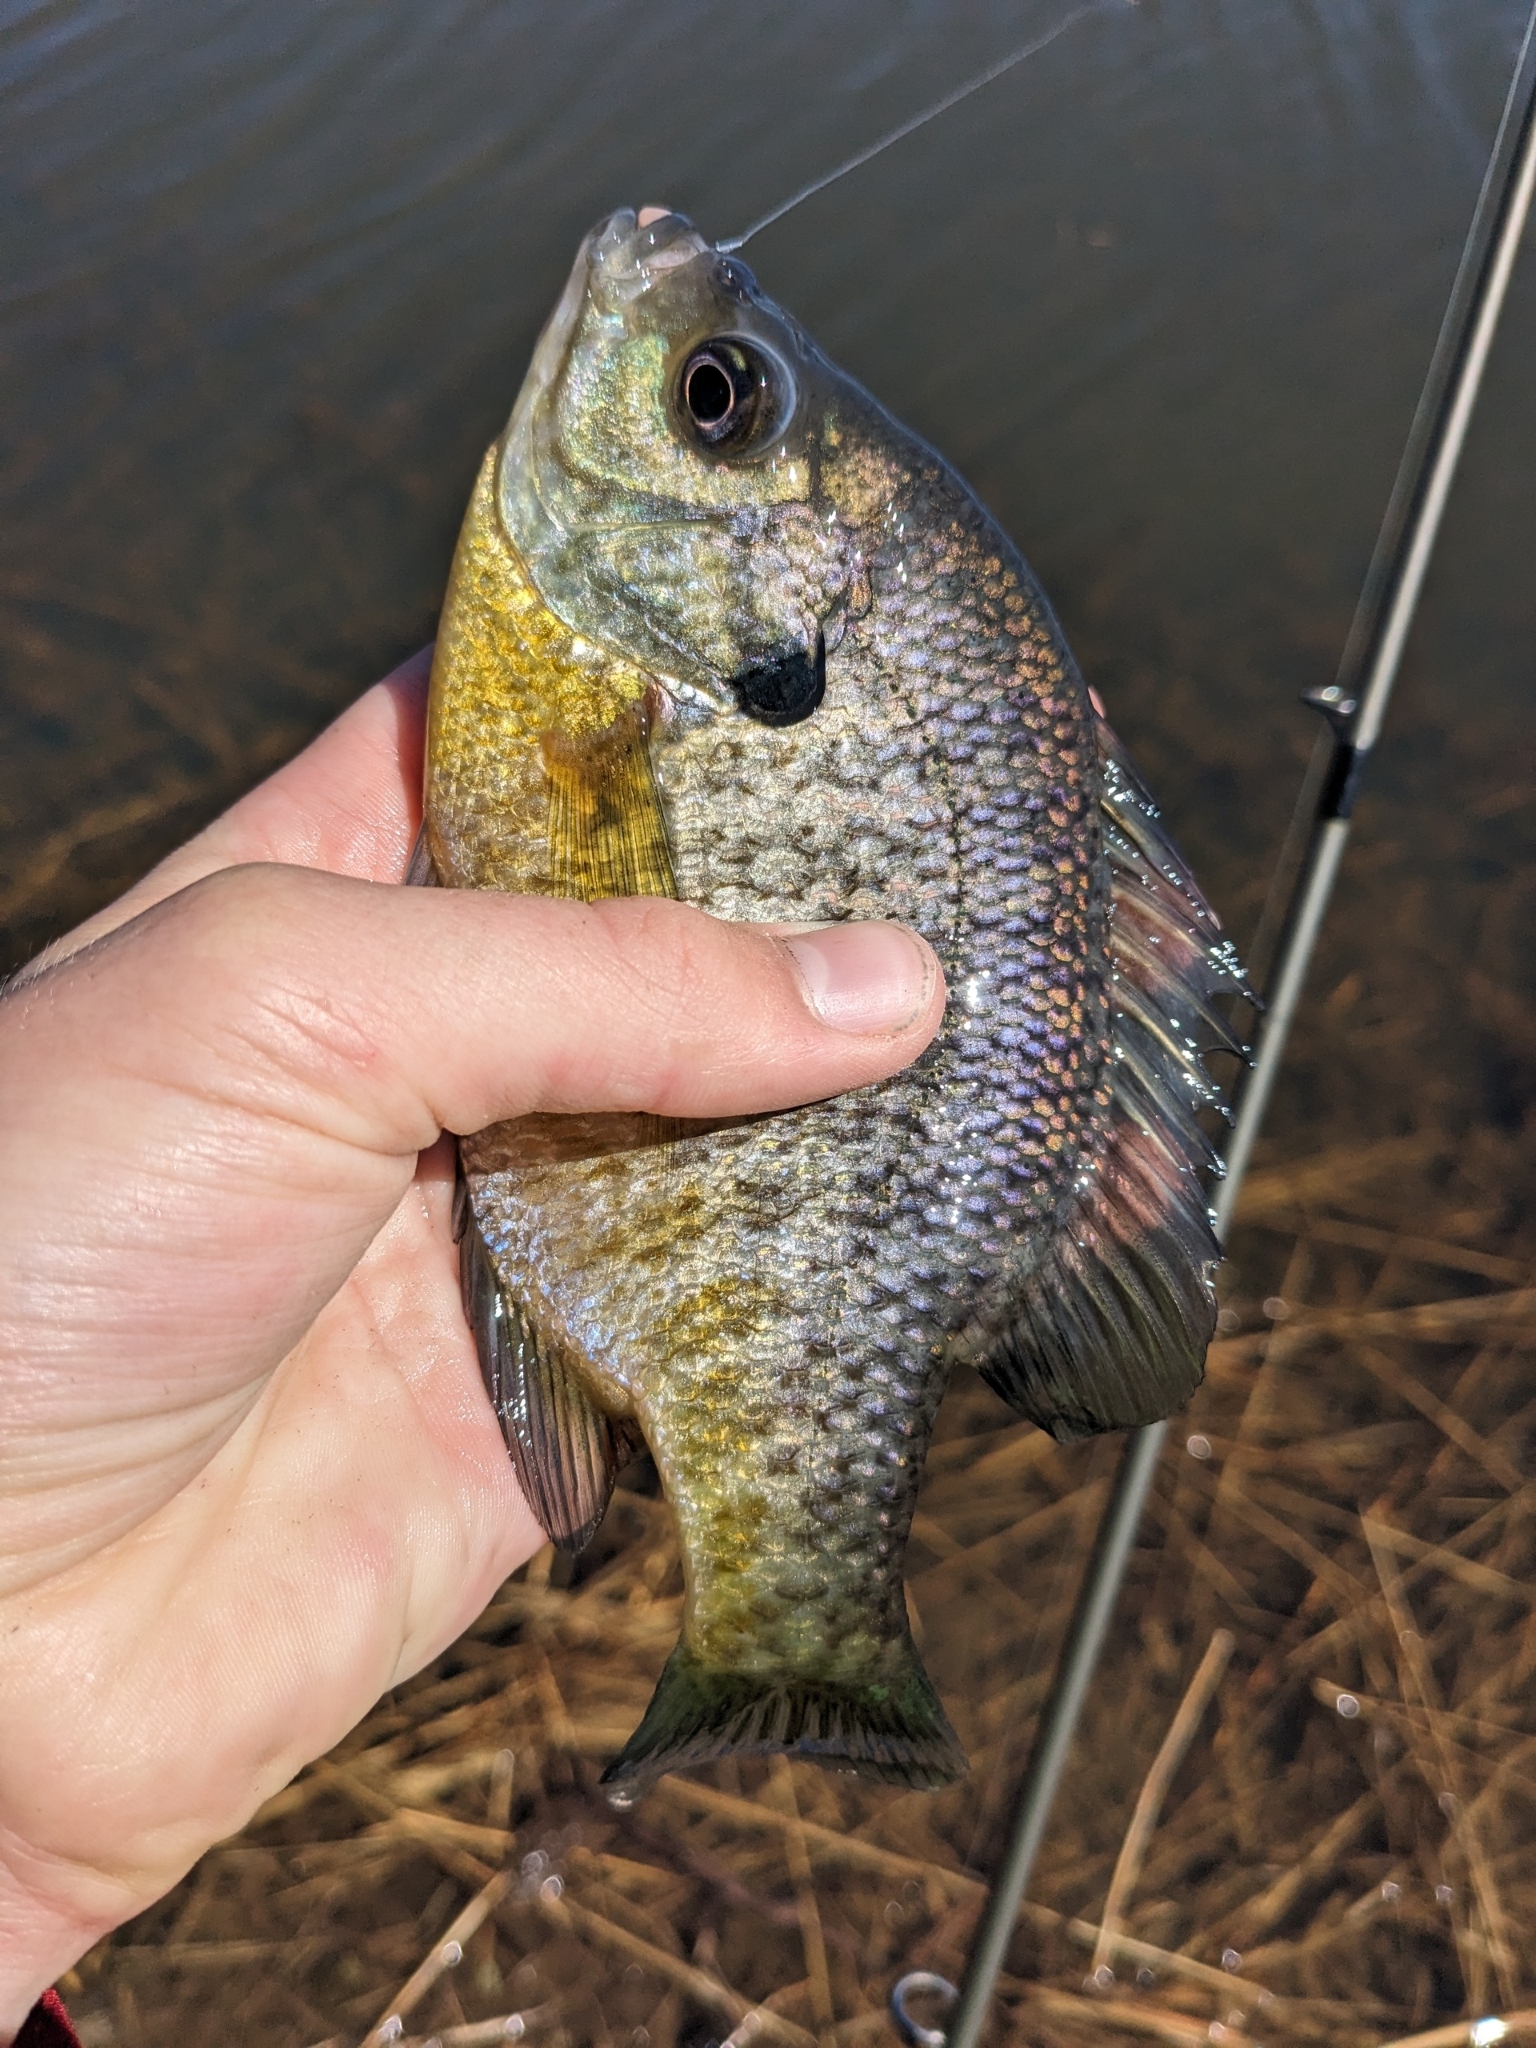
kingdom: Animalia
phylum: Chordata
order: Perciformes
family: Centrarchidae
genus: Lepomis
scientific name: Lepomis macrochirus
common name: Bluegill
